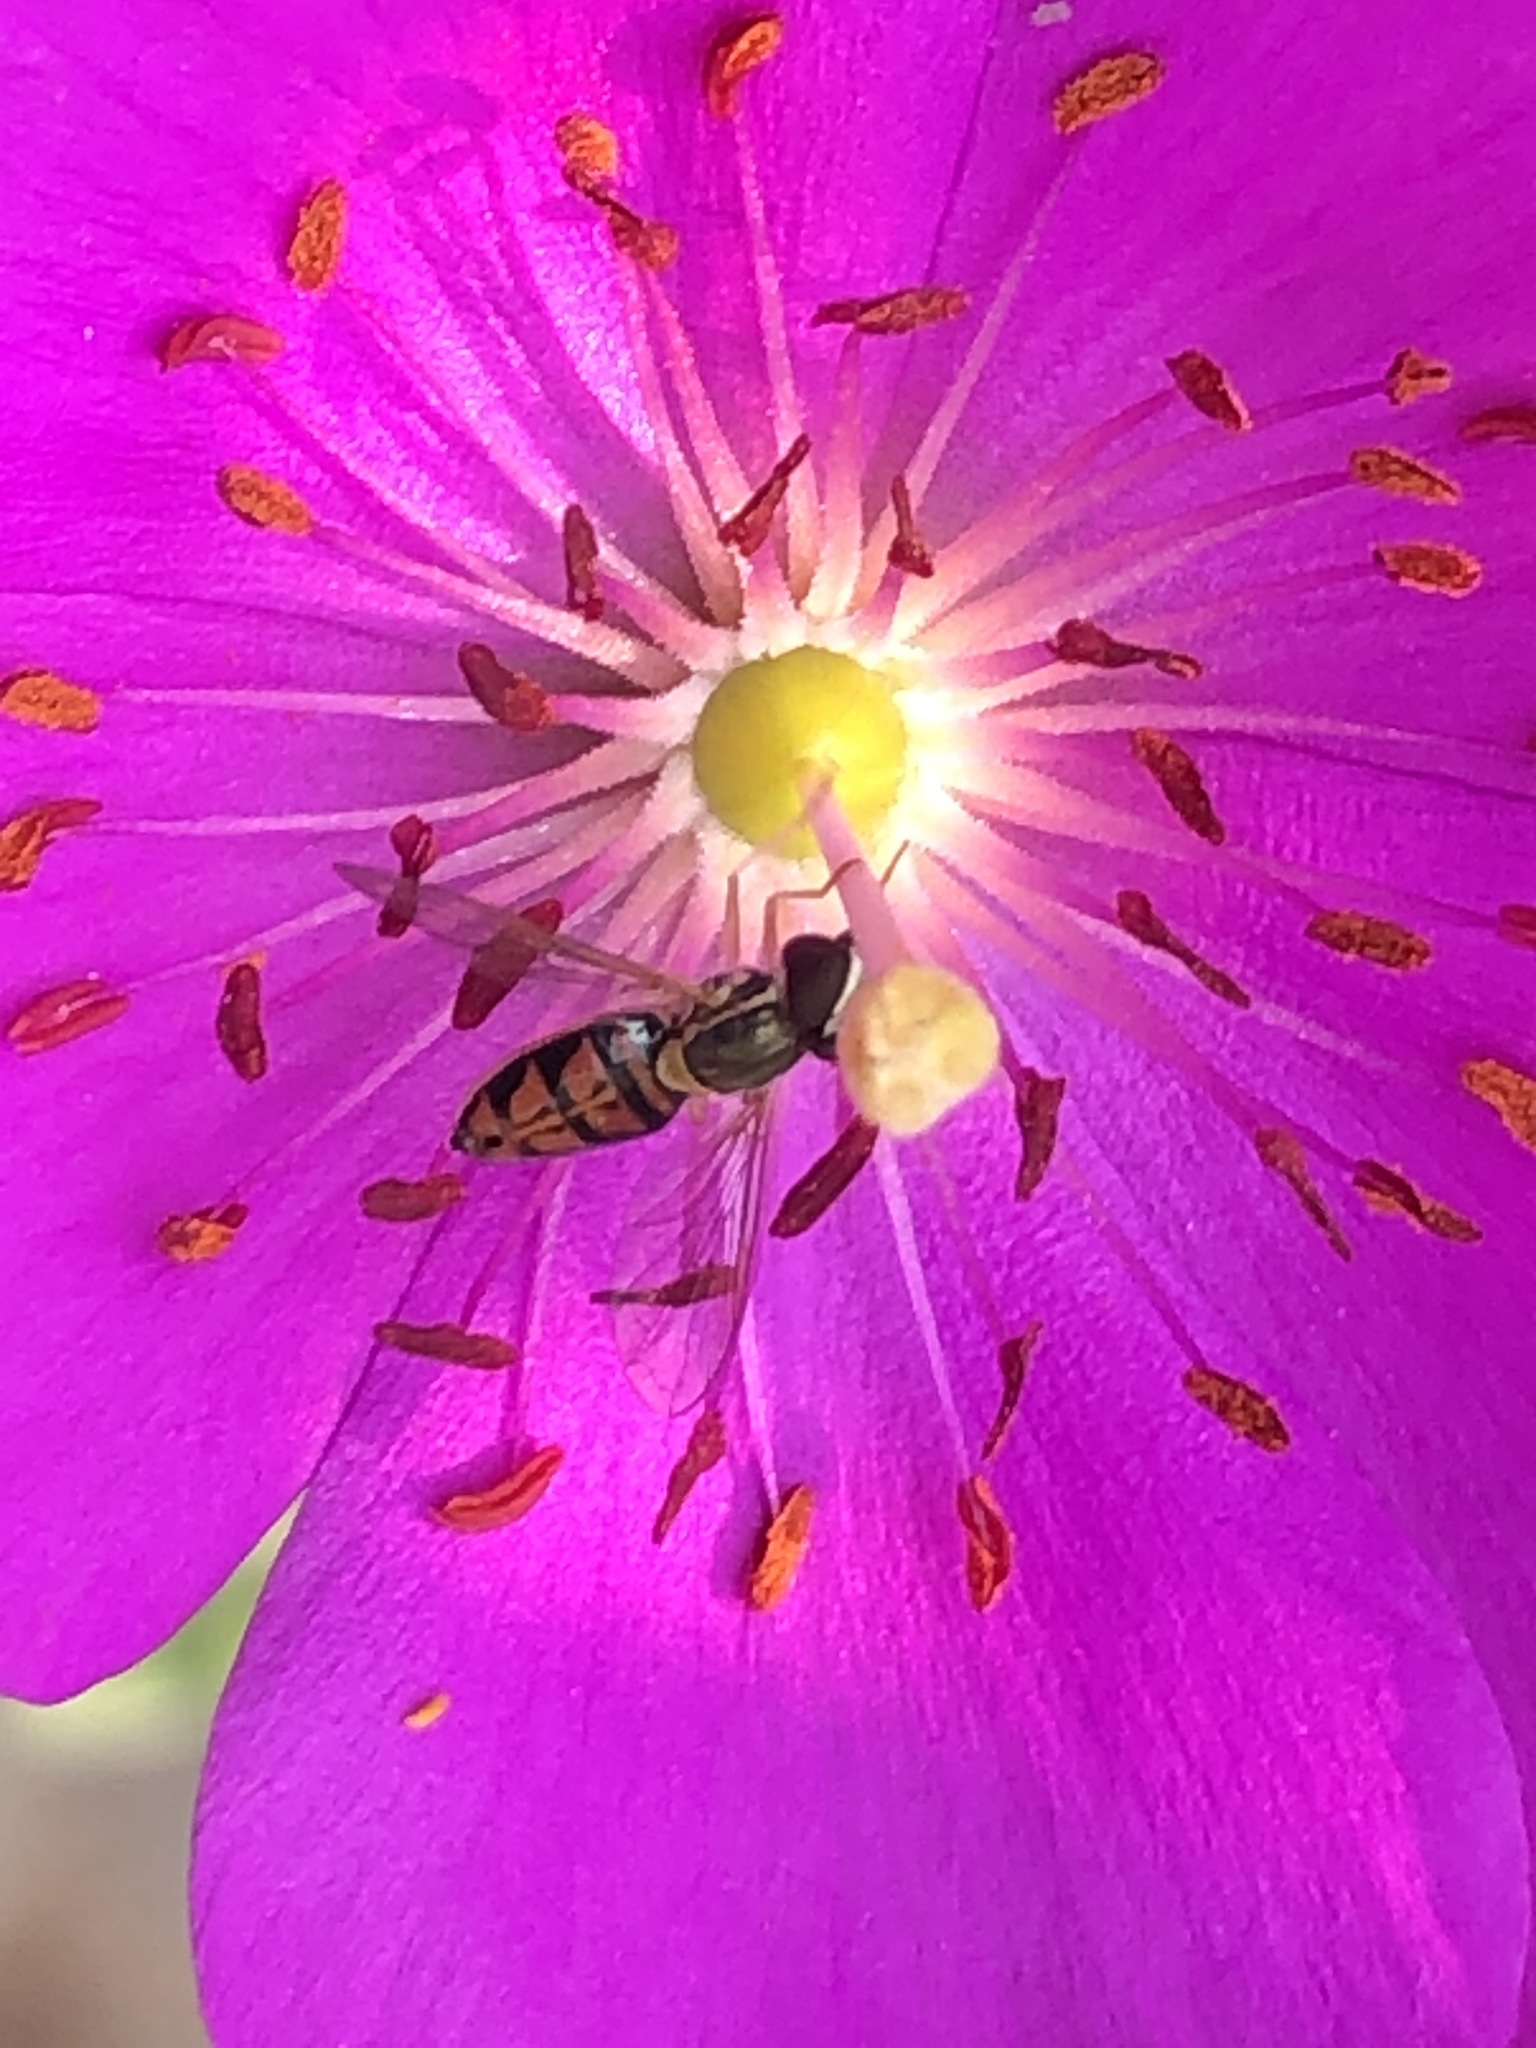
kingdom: Animalia
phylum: Arthropoda
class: Insecta
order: Diptera
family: Syrphidae
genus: Toxomerus
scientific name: Toxomerus marginatus
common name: Syrphid fly
